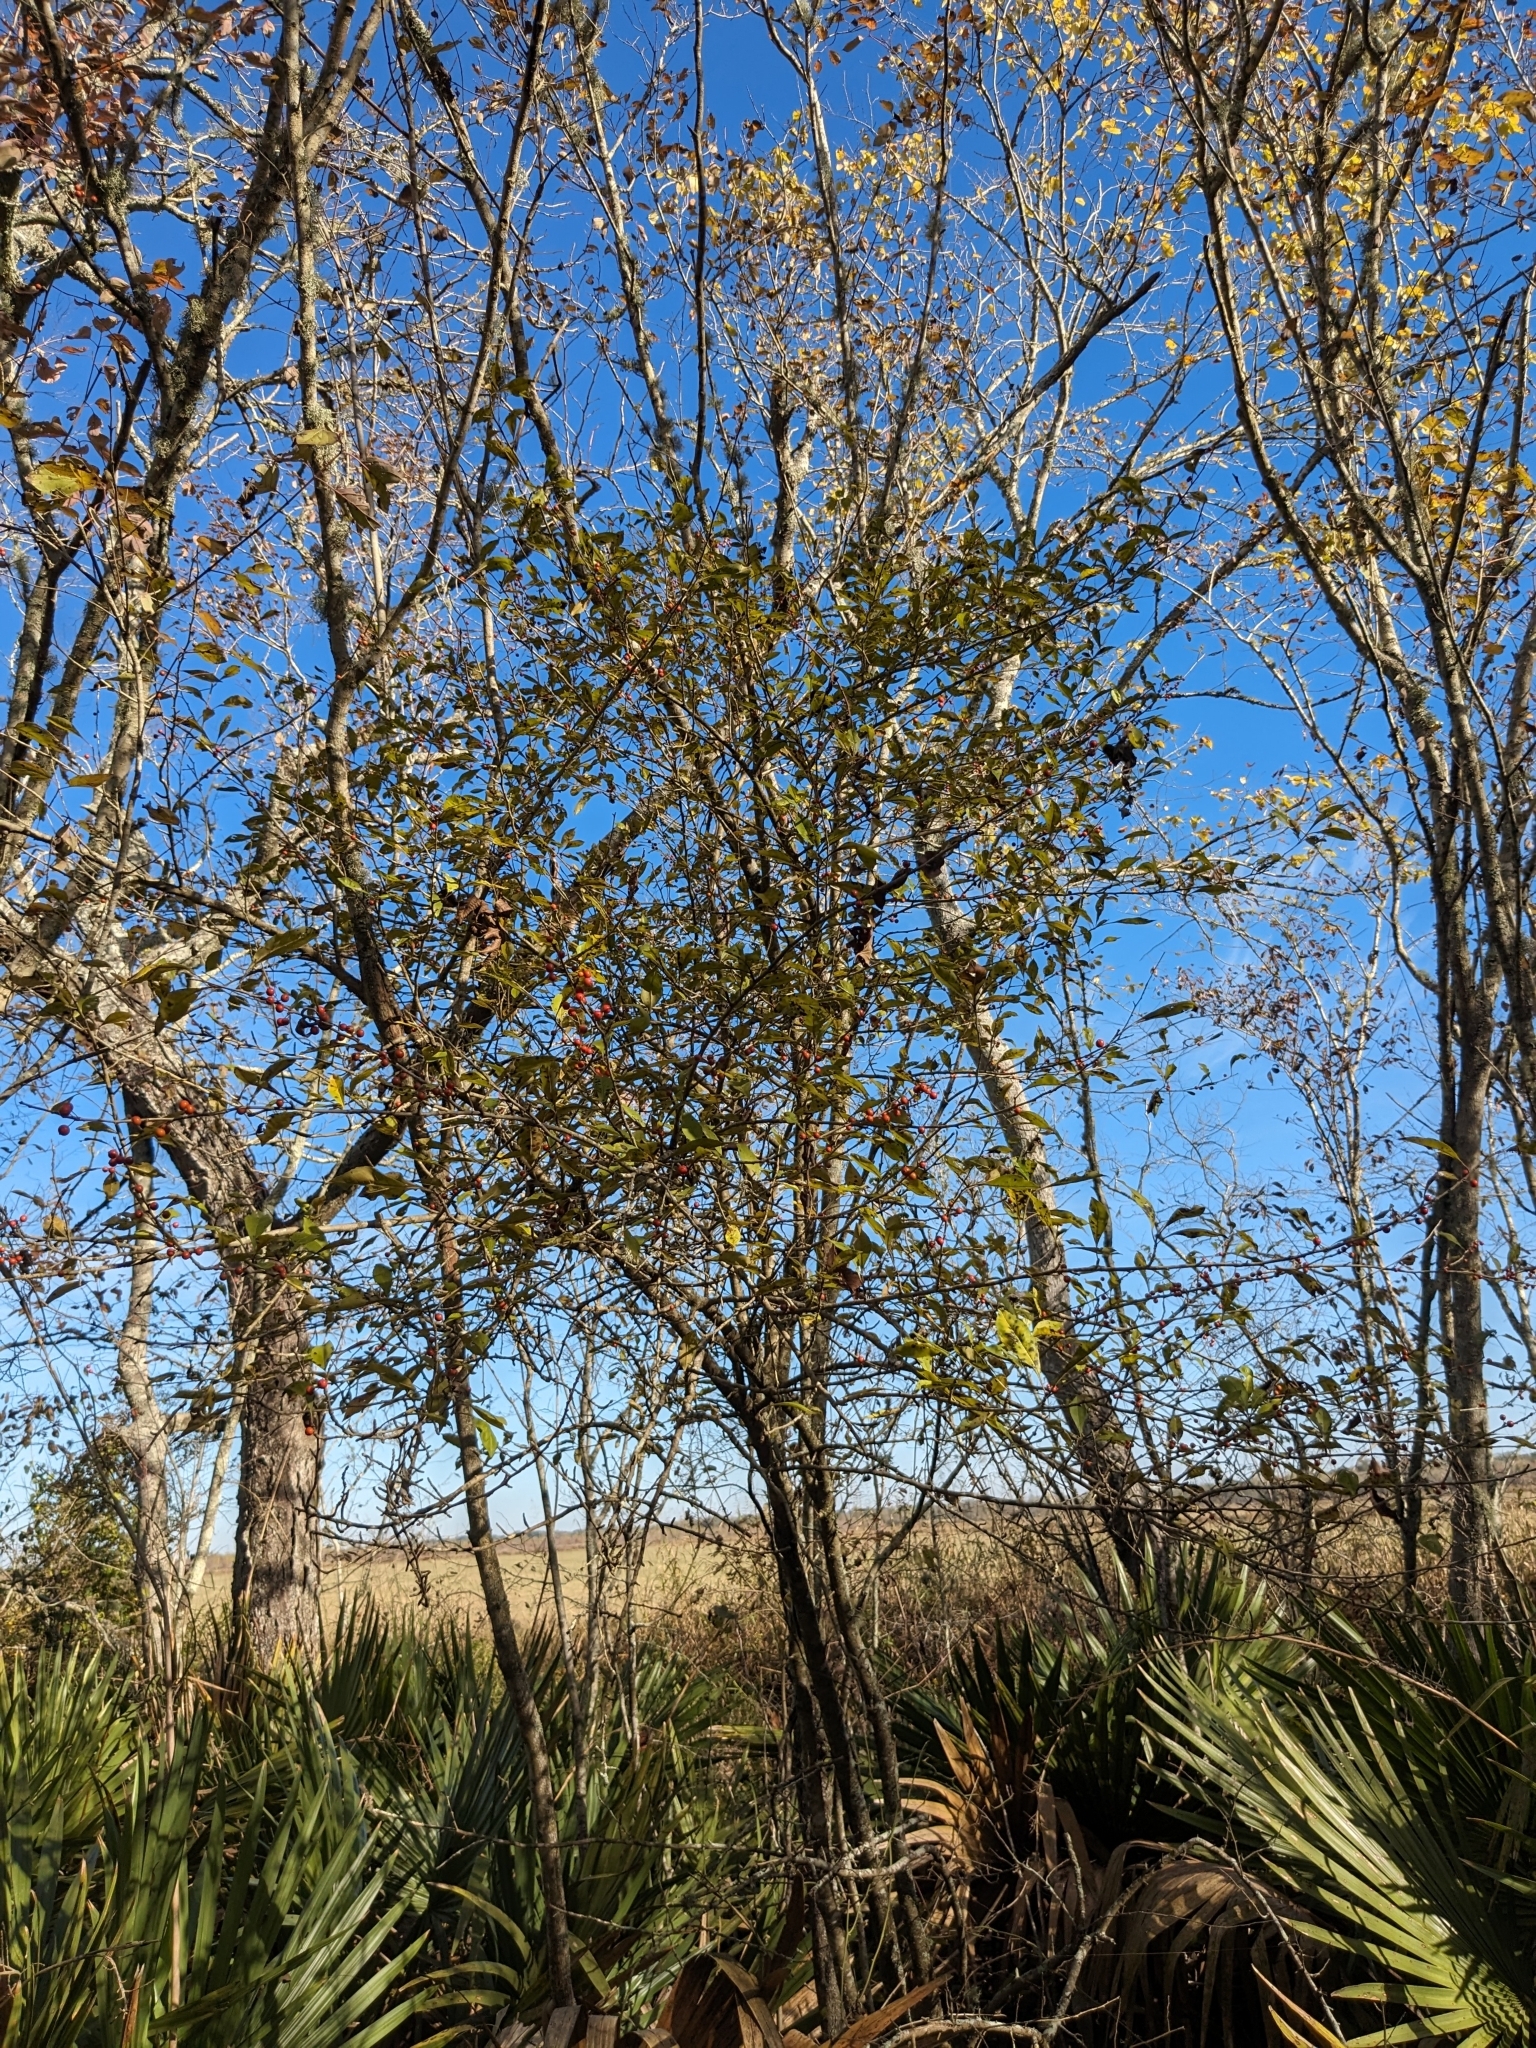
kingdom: Plantae
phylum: Tracheophyta
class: Magnoliopsida
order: Aquifoliales
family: Aquifoliaceae
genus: Ilex
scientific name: Ilex decidua
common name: Possum-haw
